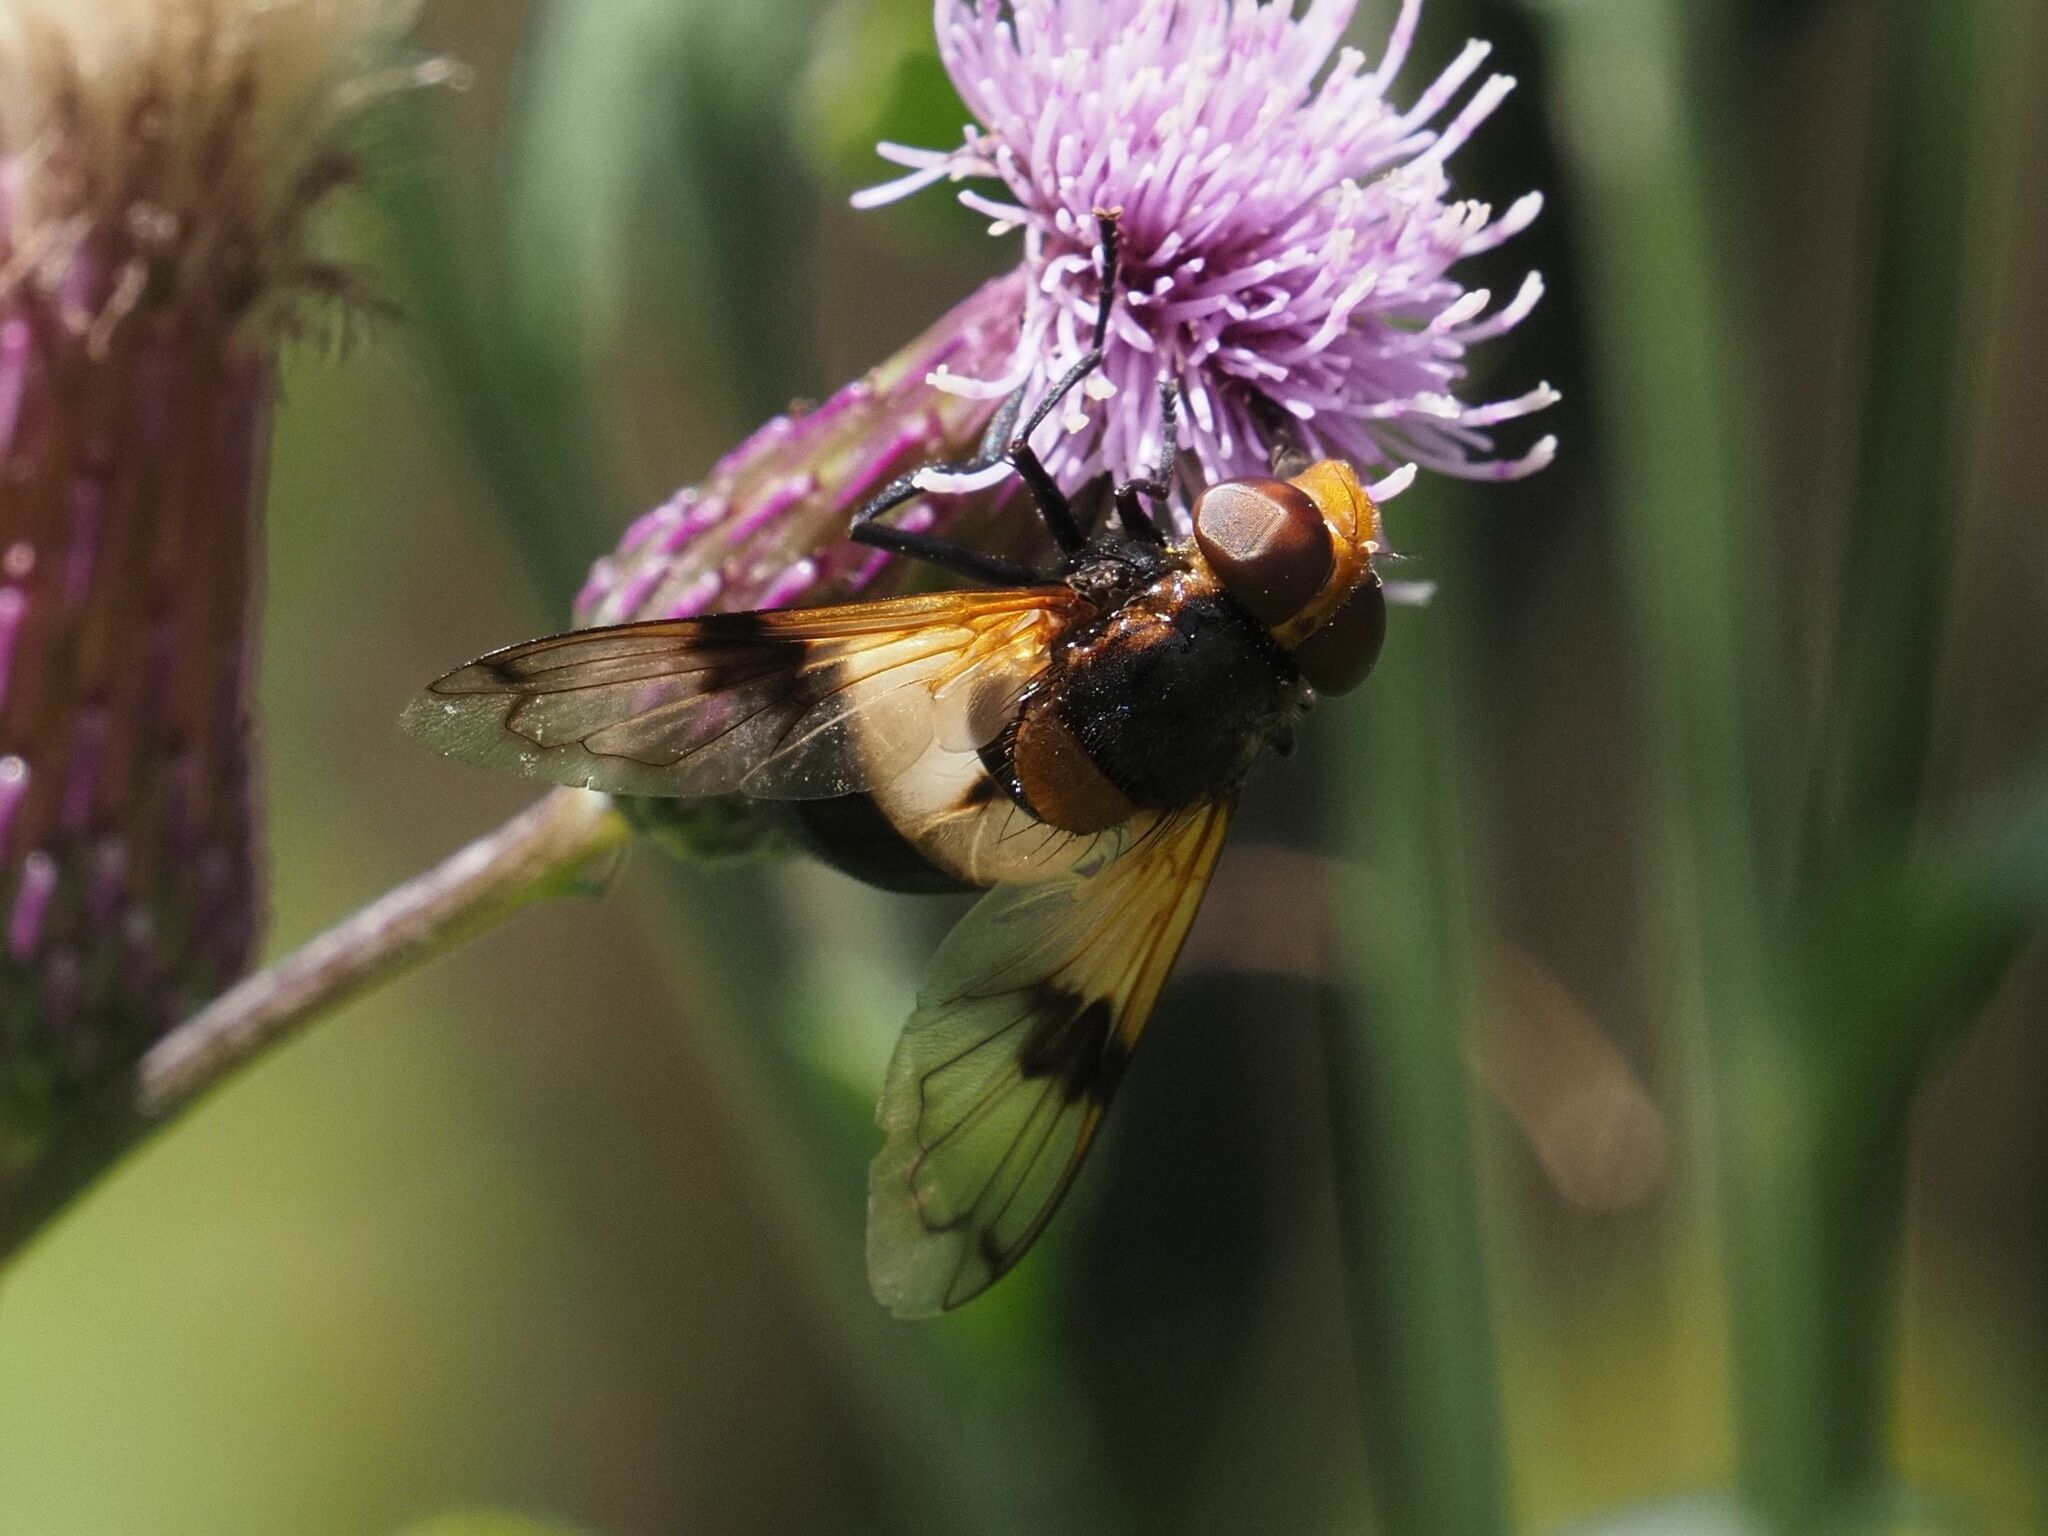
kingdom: Animalia
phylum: Arthropoda
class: Insecta
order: Diptera
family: Syrphidae
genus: Volucella
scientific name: Volucella pellucens
